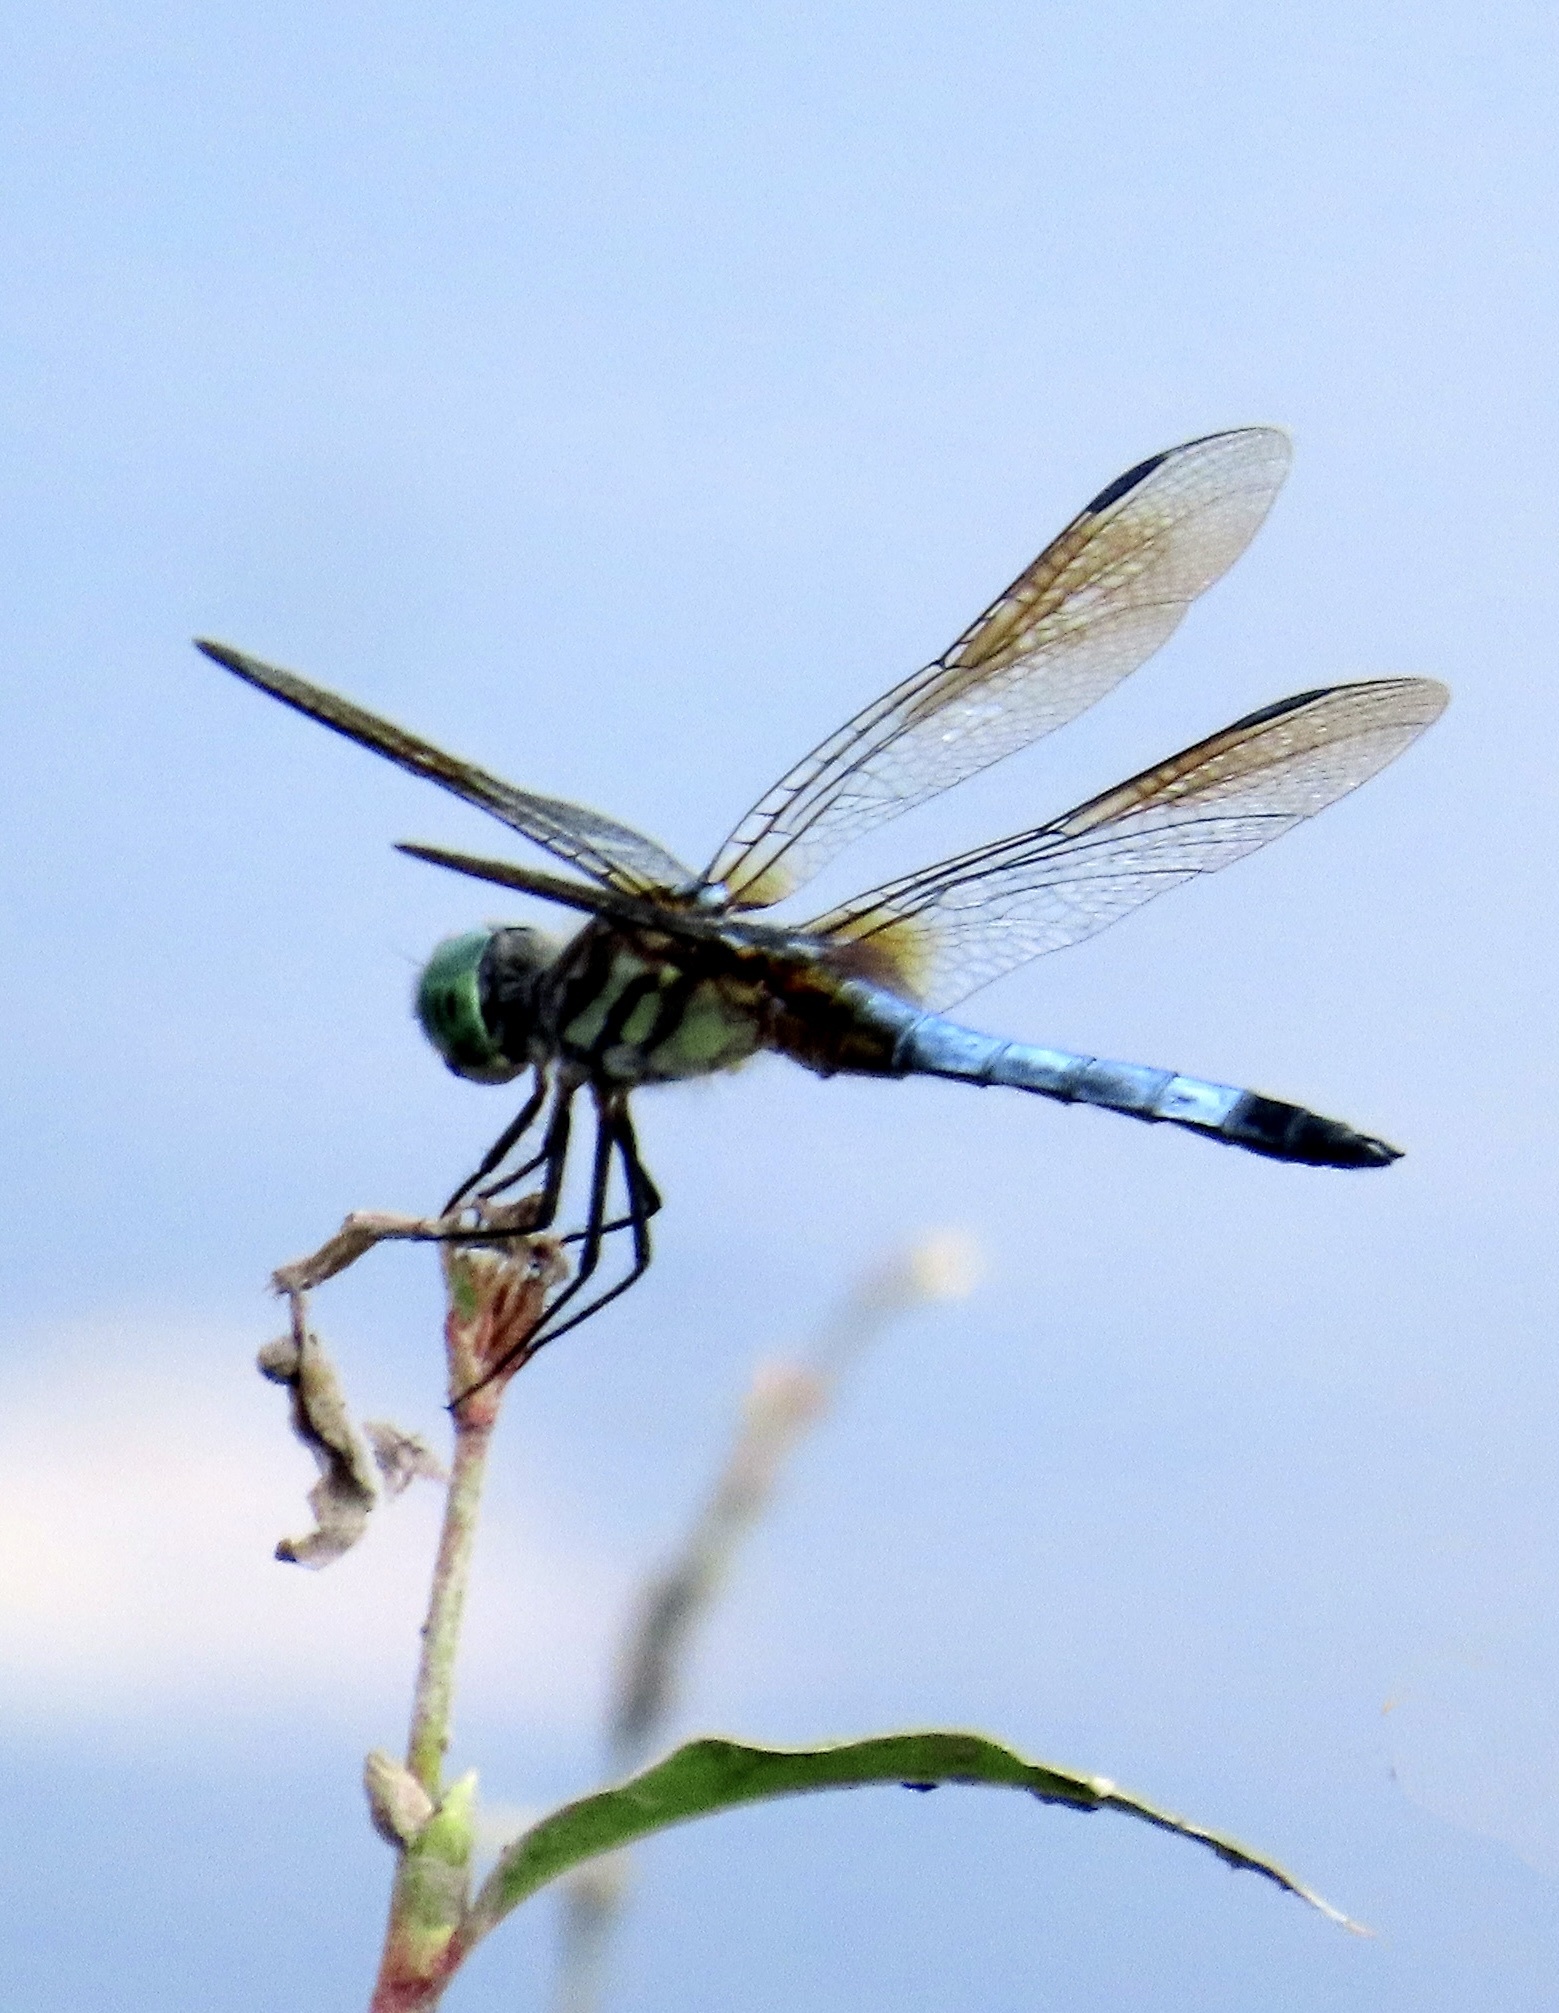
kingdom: Animalia
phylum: Arthropoda
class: Insecta
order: Odonata
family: Libellulidae
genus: Pachydiplax
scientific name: Pachydiplax longipennis
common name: Blue dasher
